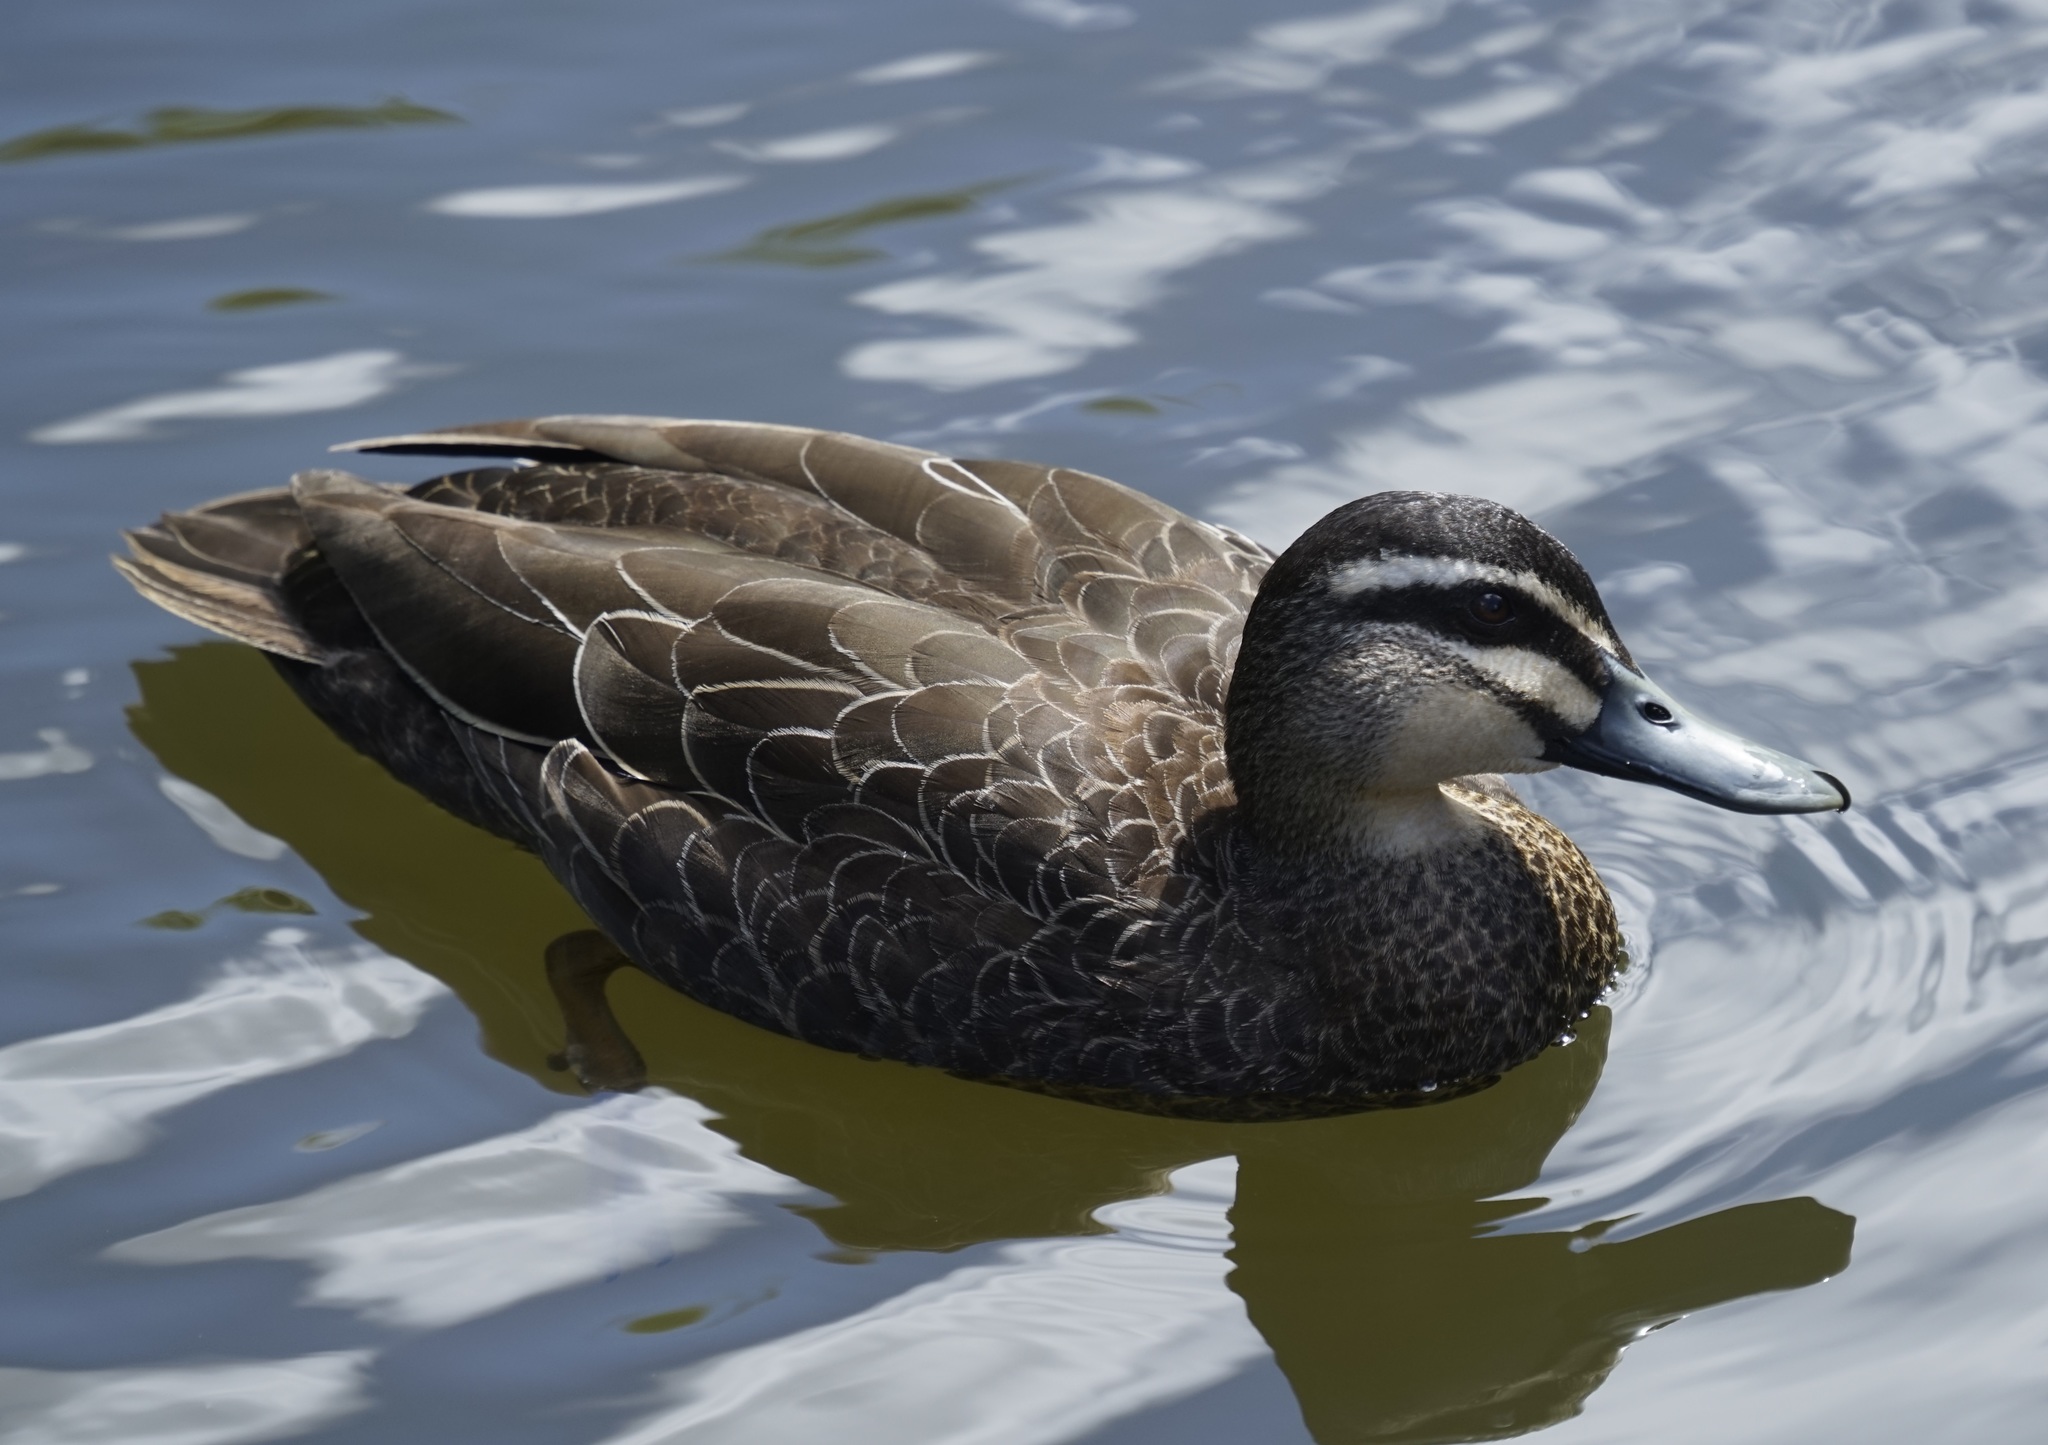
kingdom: Animalia
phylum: Chordata
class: Aves
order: Anseriformes
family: Anatidae
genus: Anas
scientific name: Anas superciliosa
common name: Pacific black duck
